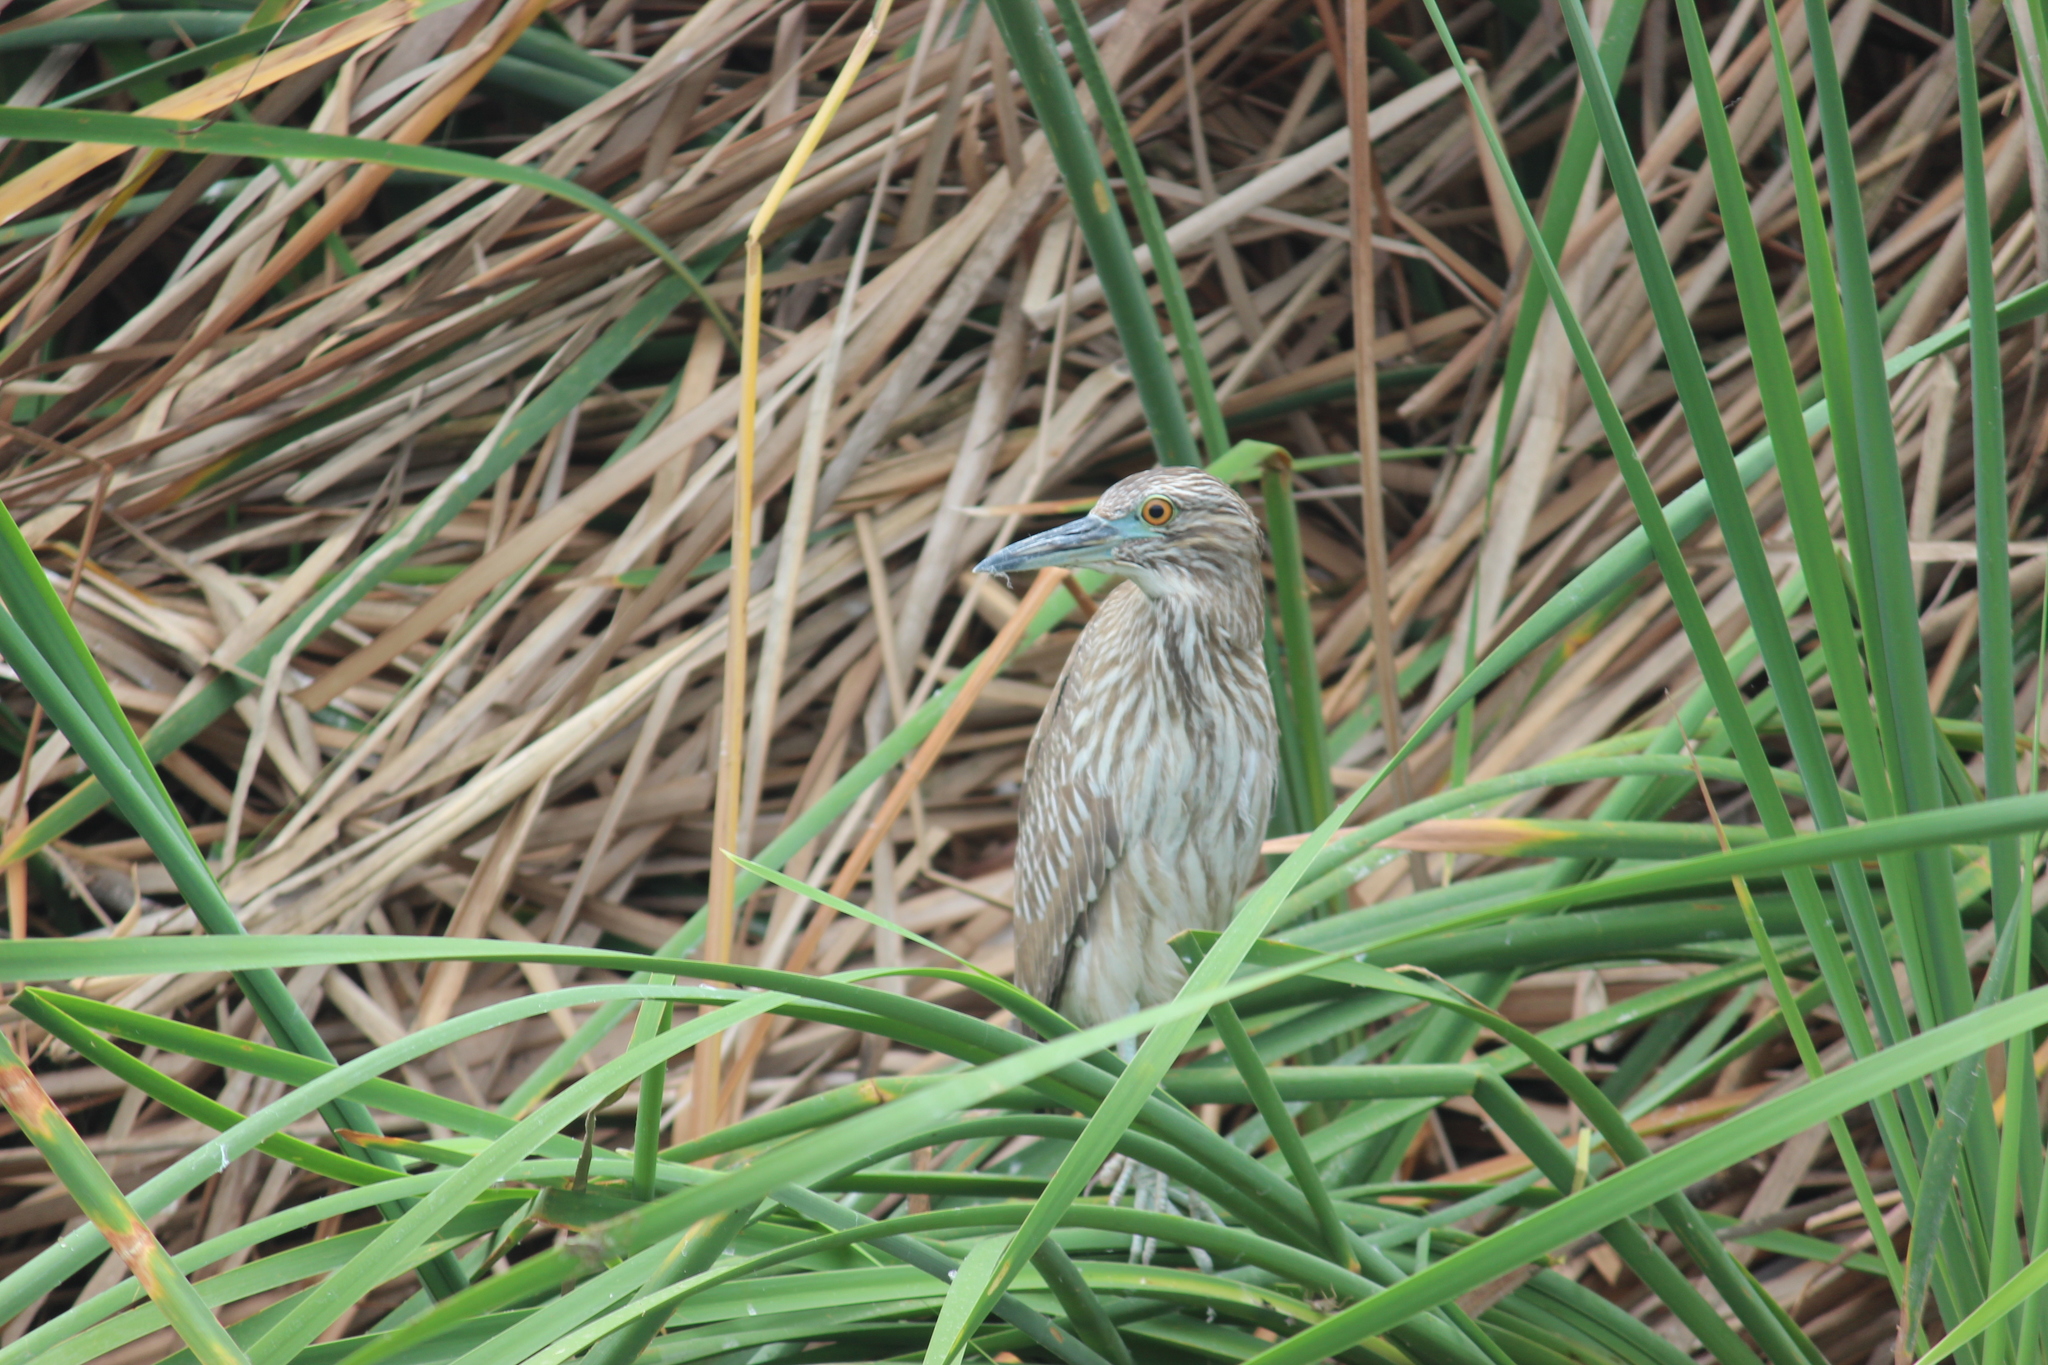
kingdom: Animalia
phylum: Chordata
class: Aves
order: Pelecaniformes
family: Ardeidae
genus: Nycticorax
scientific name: Nycticorax nycticorax
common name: Black-crowned night heron
